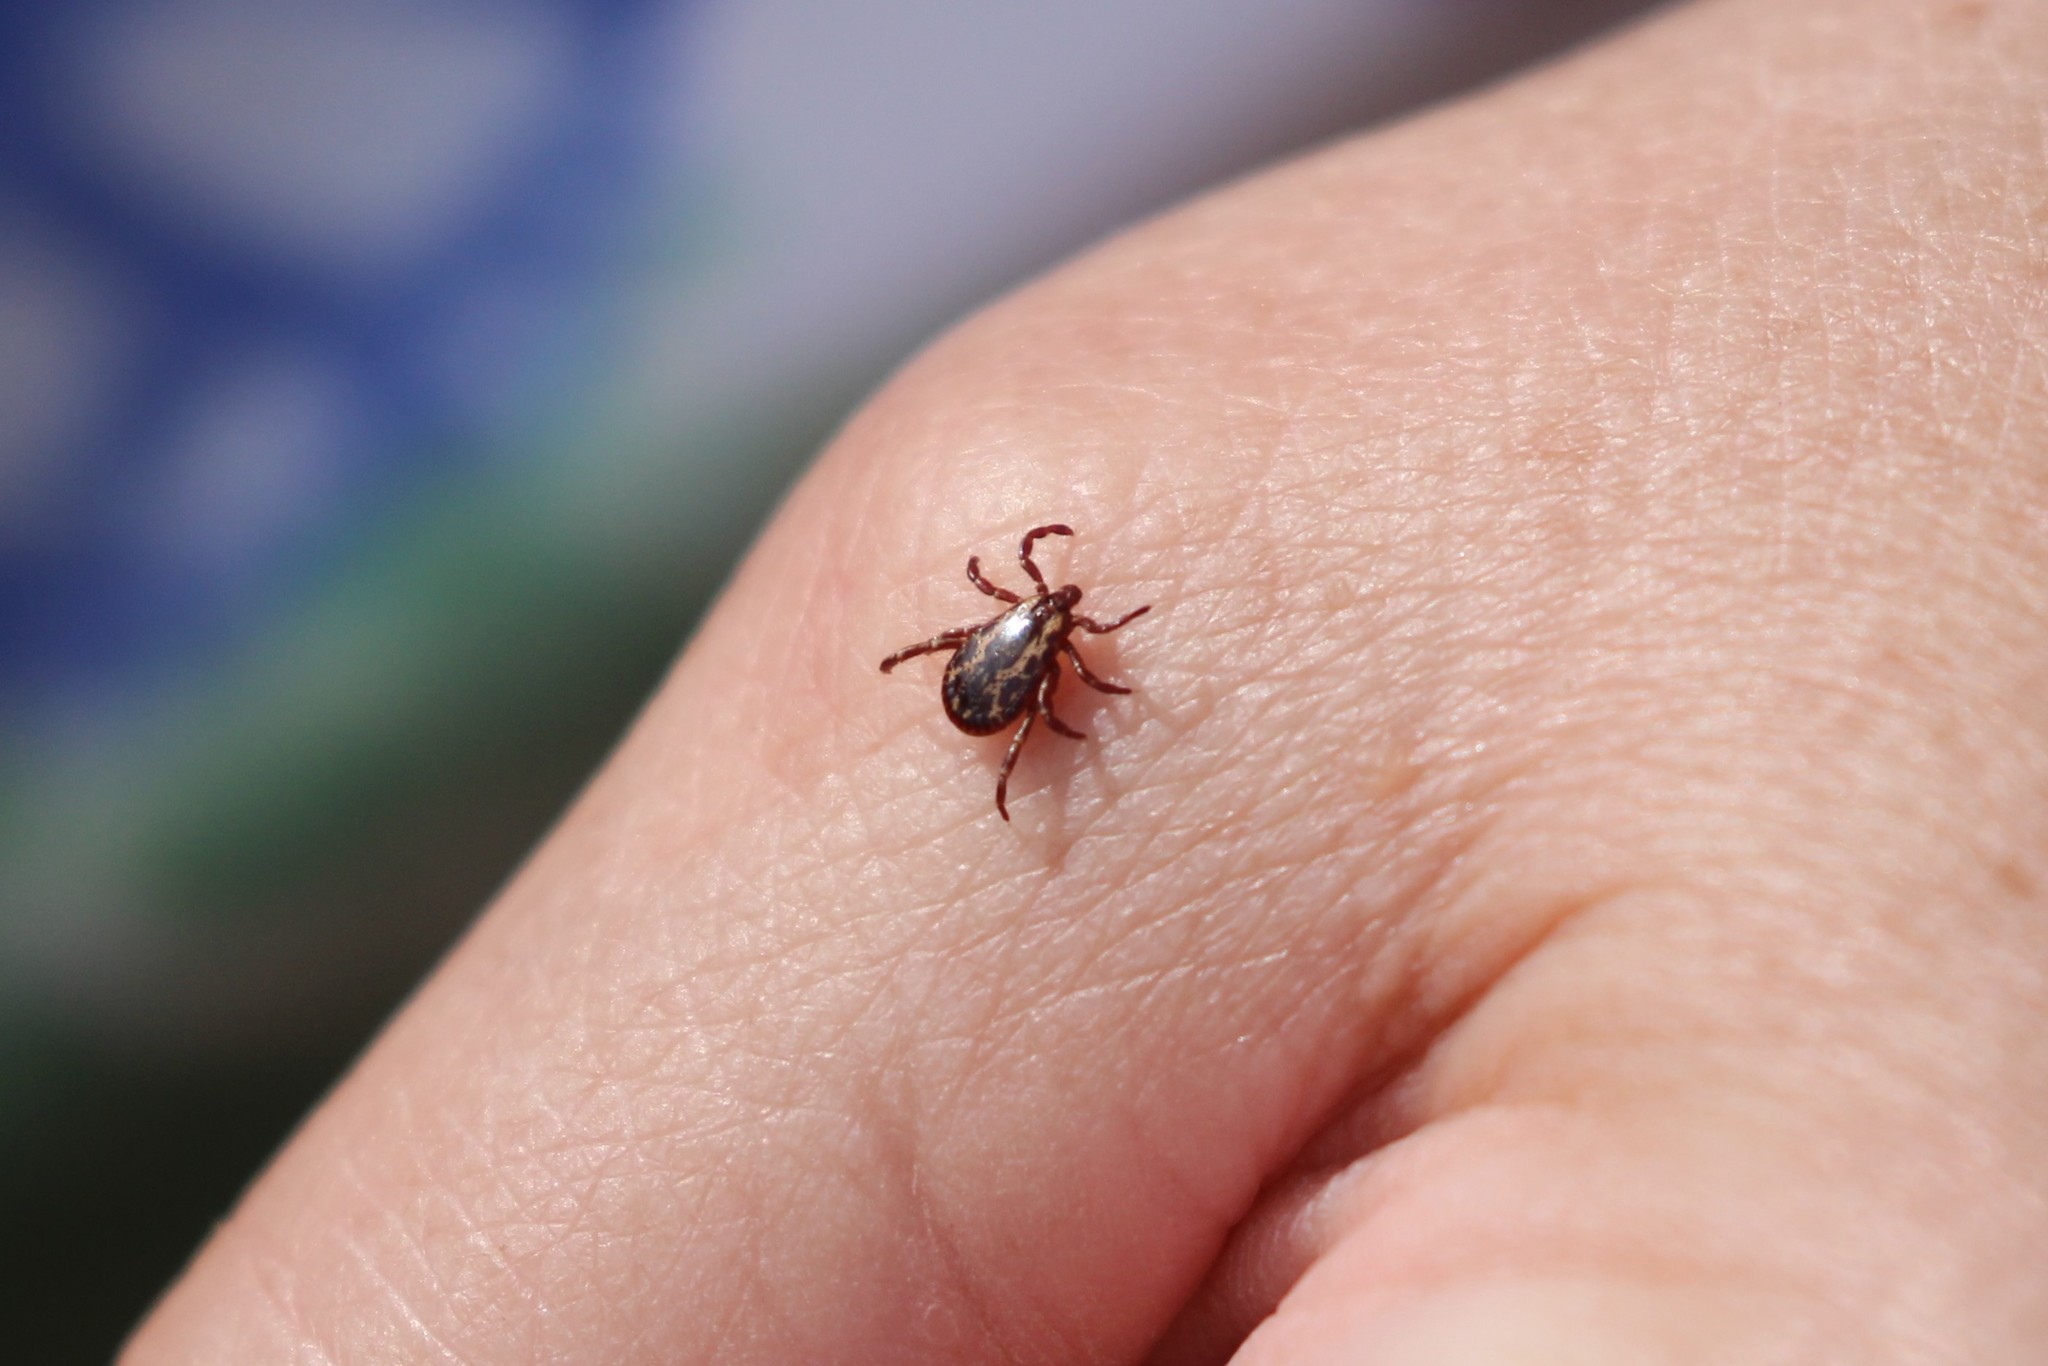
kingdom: Animalia
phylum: Arthropoda
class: Arachnida
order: Ixodida
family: Ixodidae
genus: Dermacentor
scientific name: Dermacentor variabilis
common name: American dog tick
